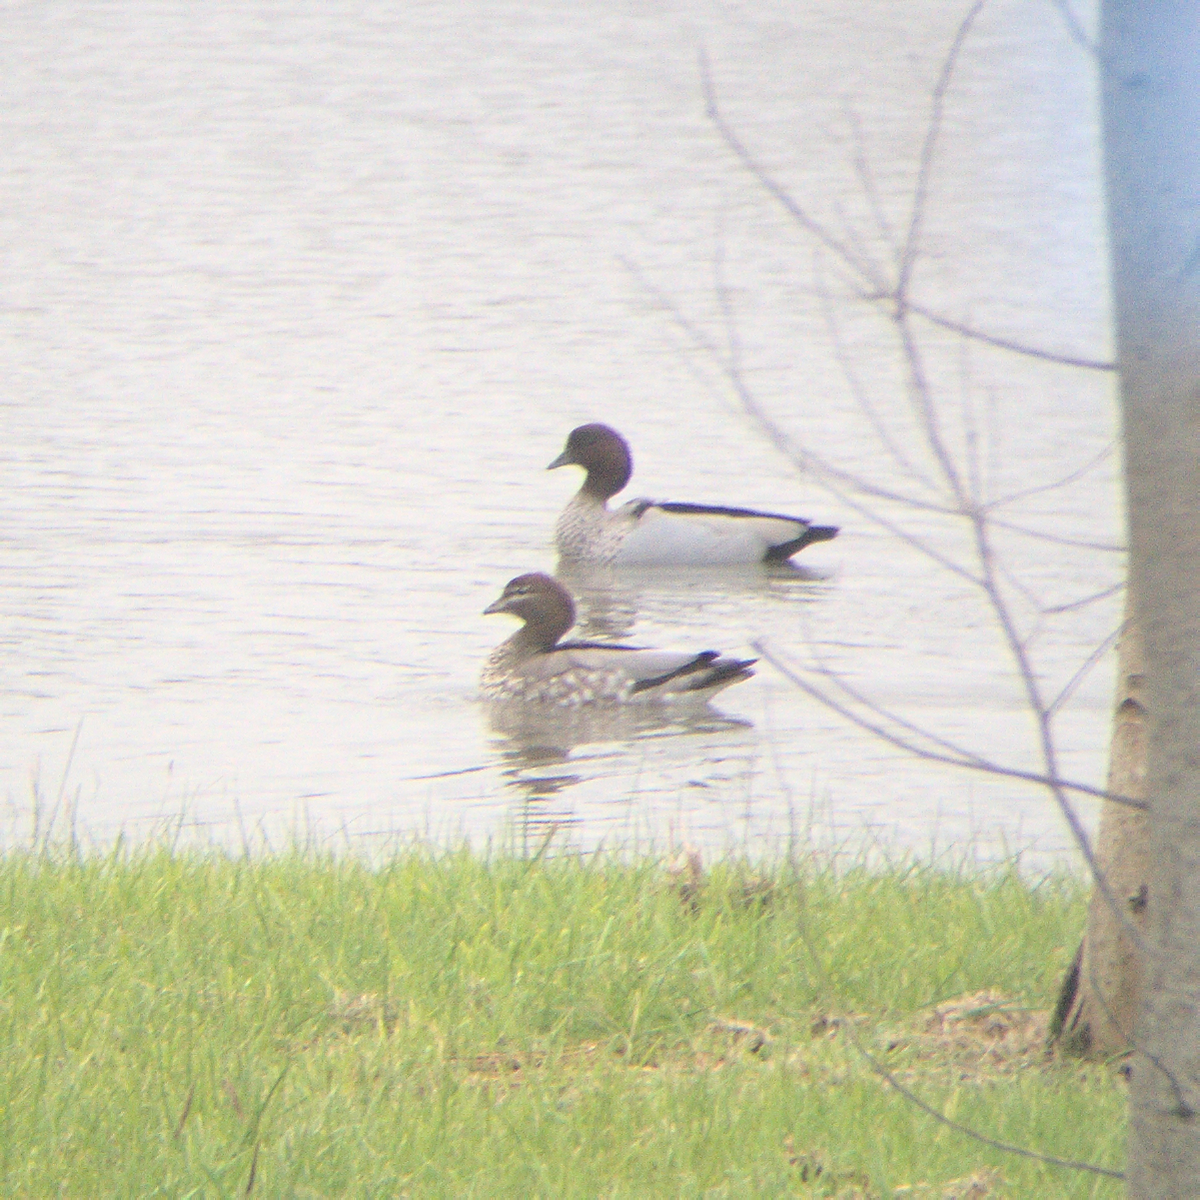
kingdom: Animalia
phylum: Chordata
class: Aves
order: Anseriformes
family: Anatidae
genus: Chenonetta
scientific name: Chenonetta jubata
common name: Maned duck
